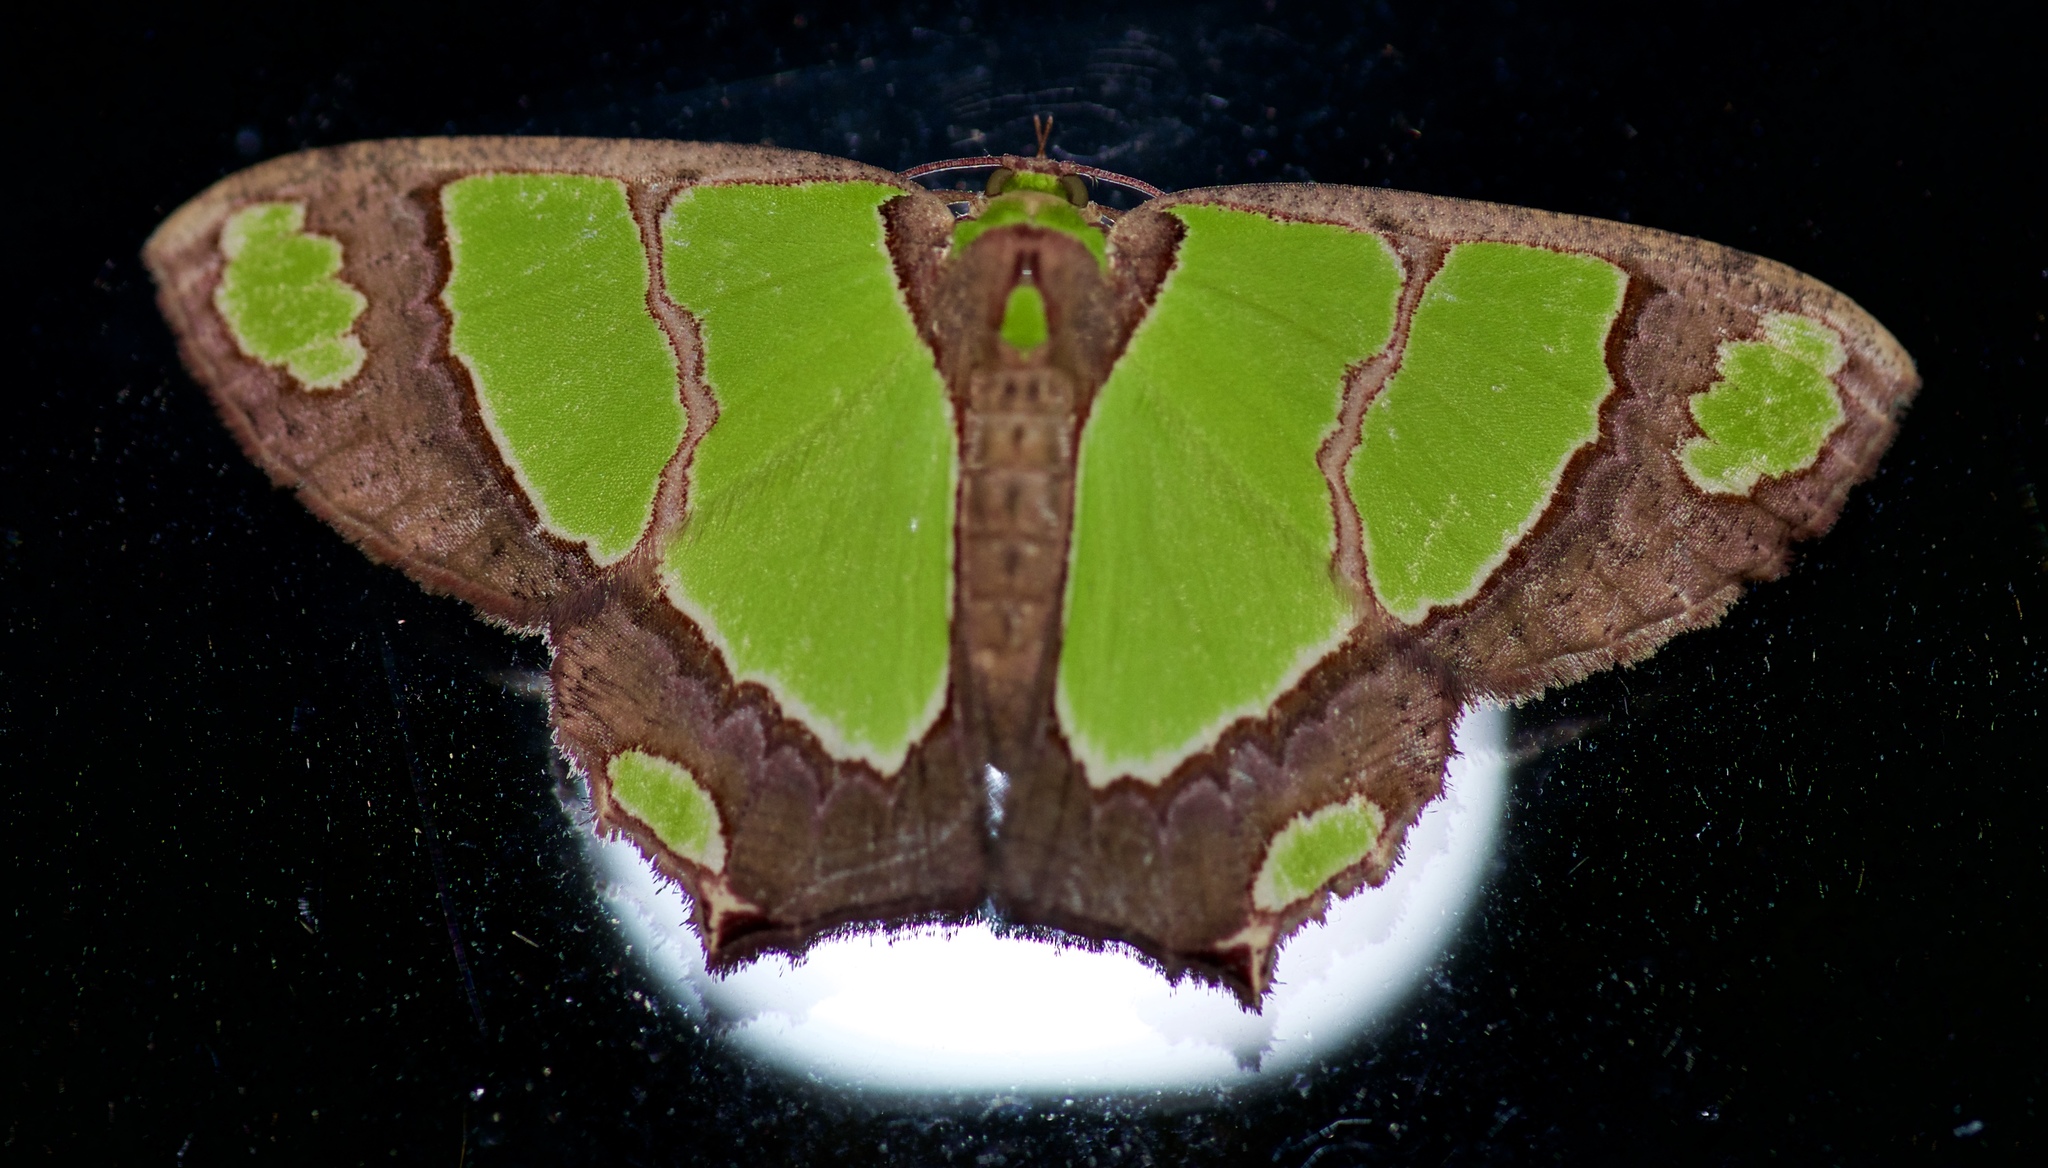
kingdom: Animalia
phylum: Arthropoda
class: Insecta
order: Lepidoptera
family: Geometridae
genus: Agathia
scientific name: Agathia quinaria
